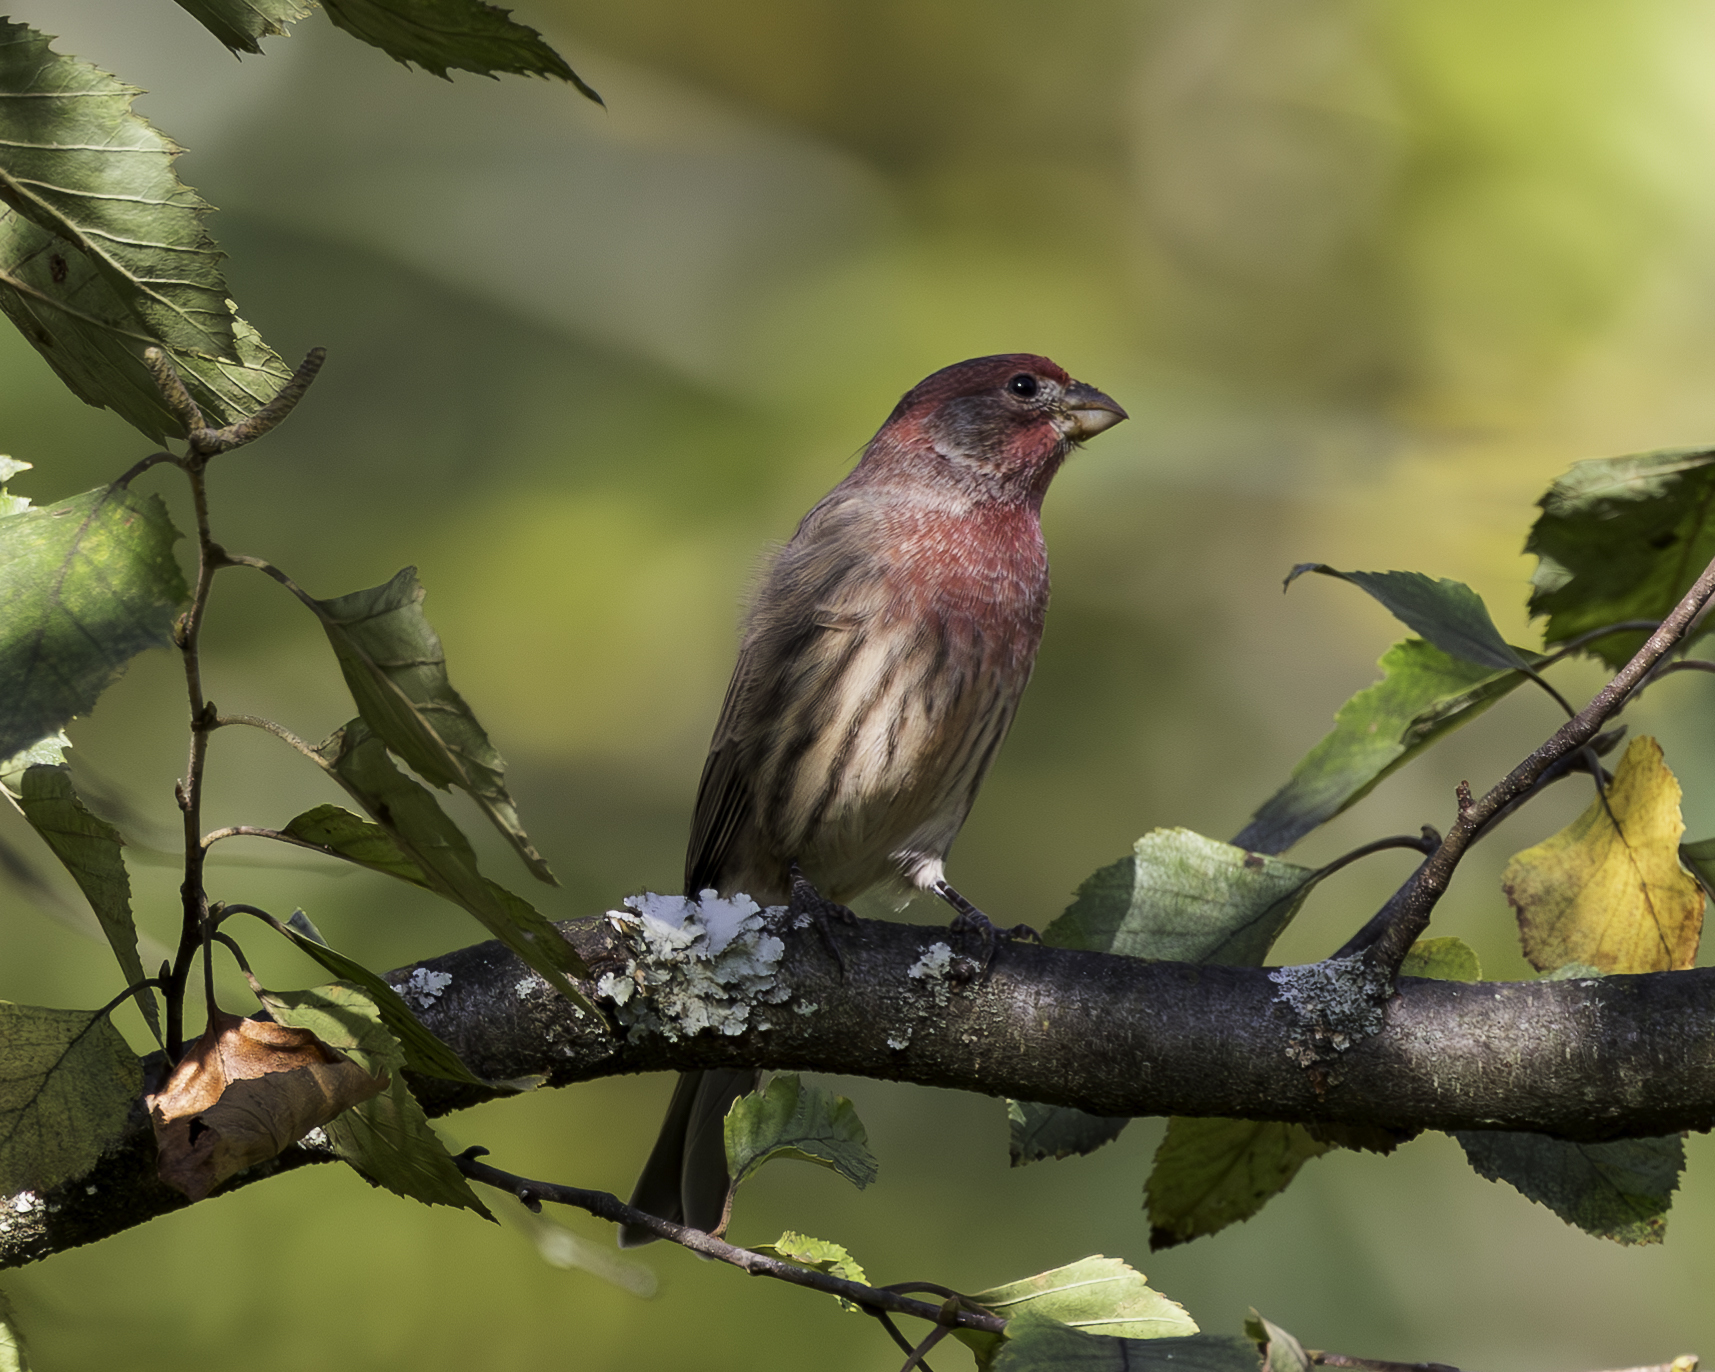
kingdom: Animalia
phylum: Chordata
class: Aves
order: Passeriformes
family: Fringillidae
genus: Haemorhous
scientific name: Haemorhous mexicanus
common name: House finch
